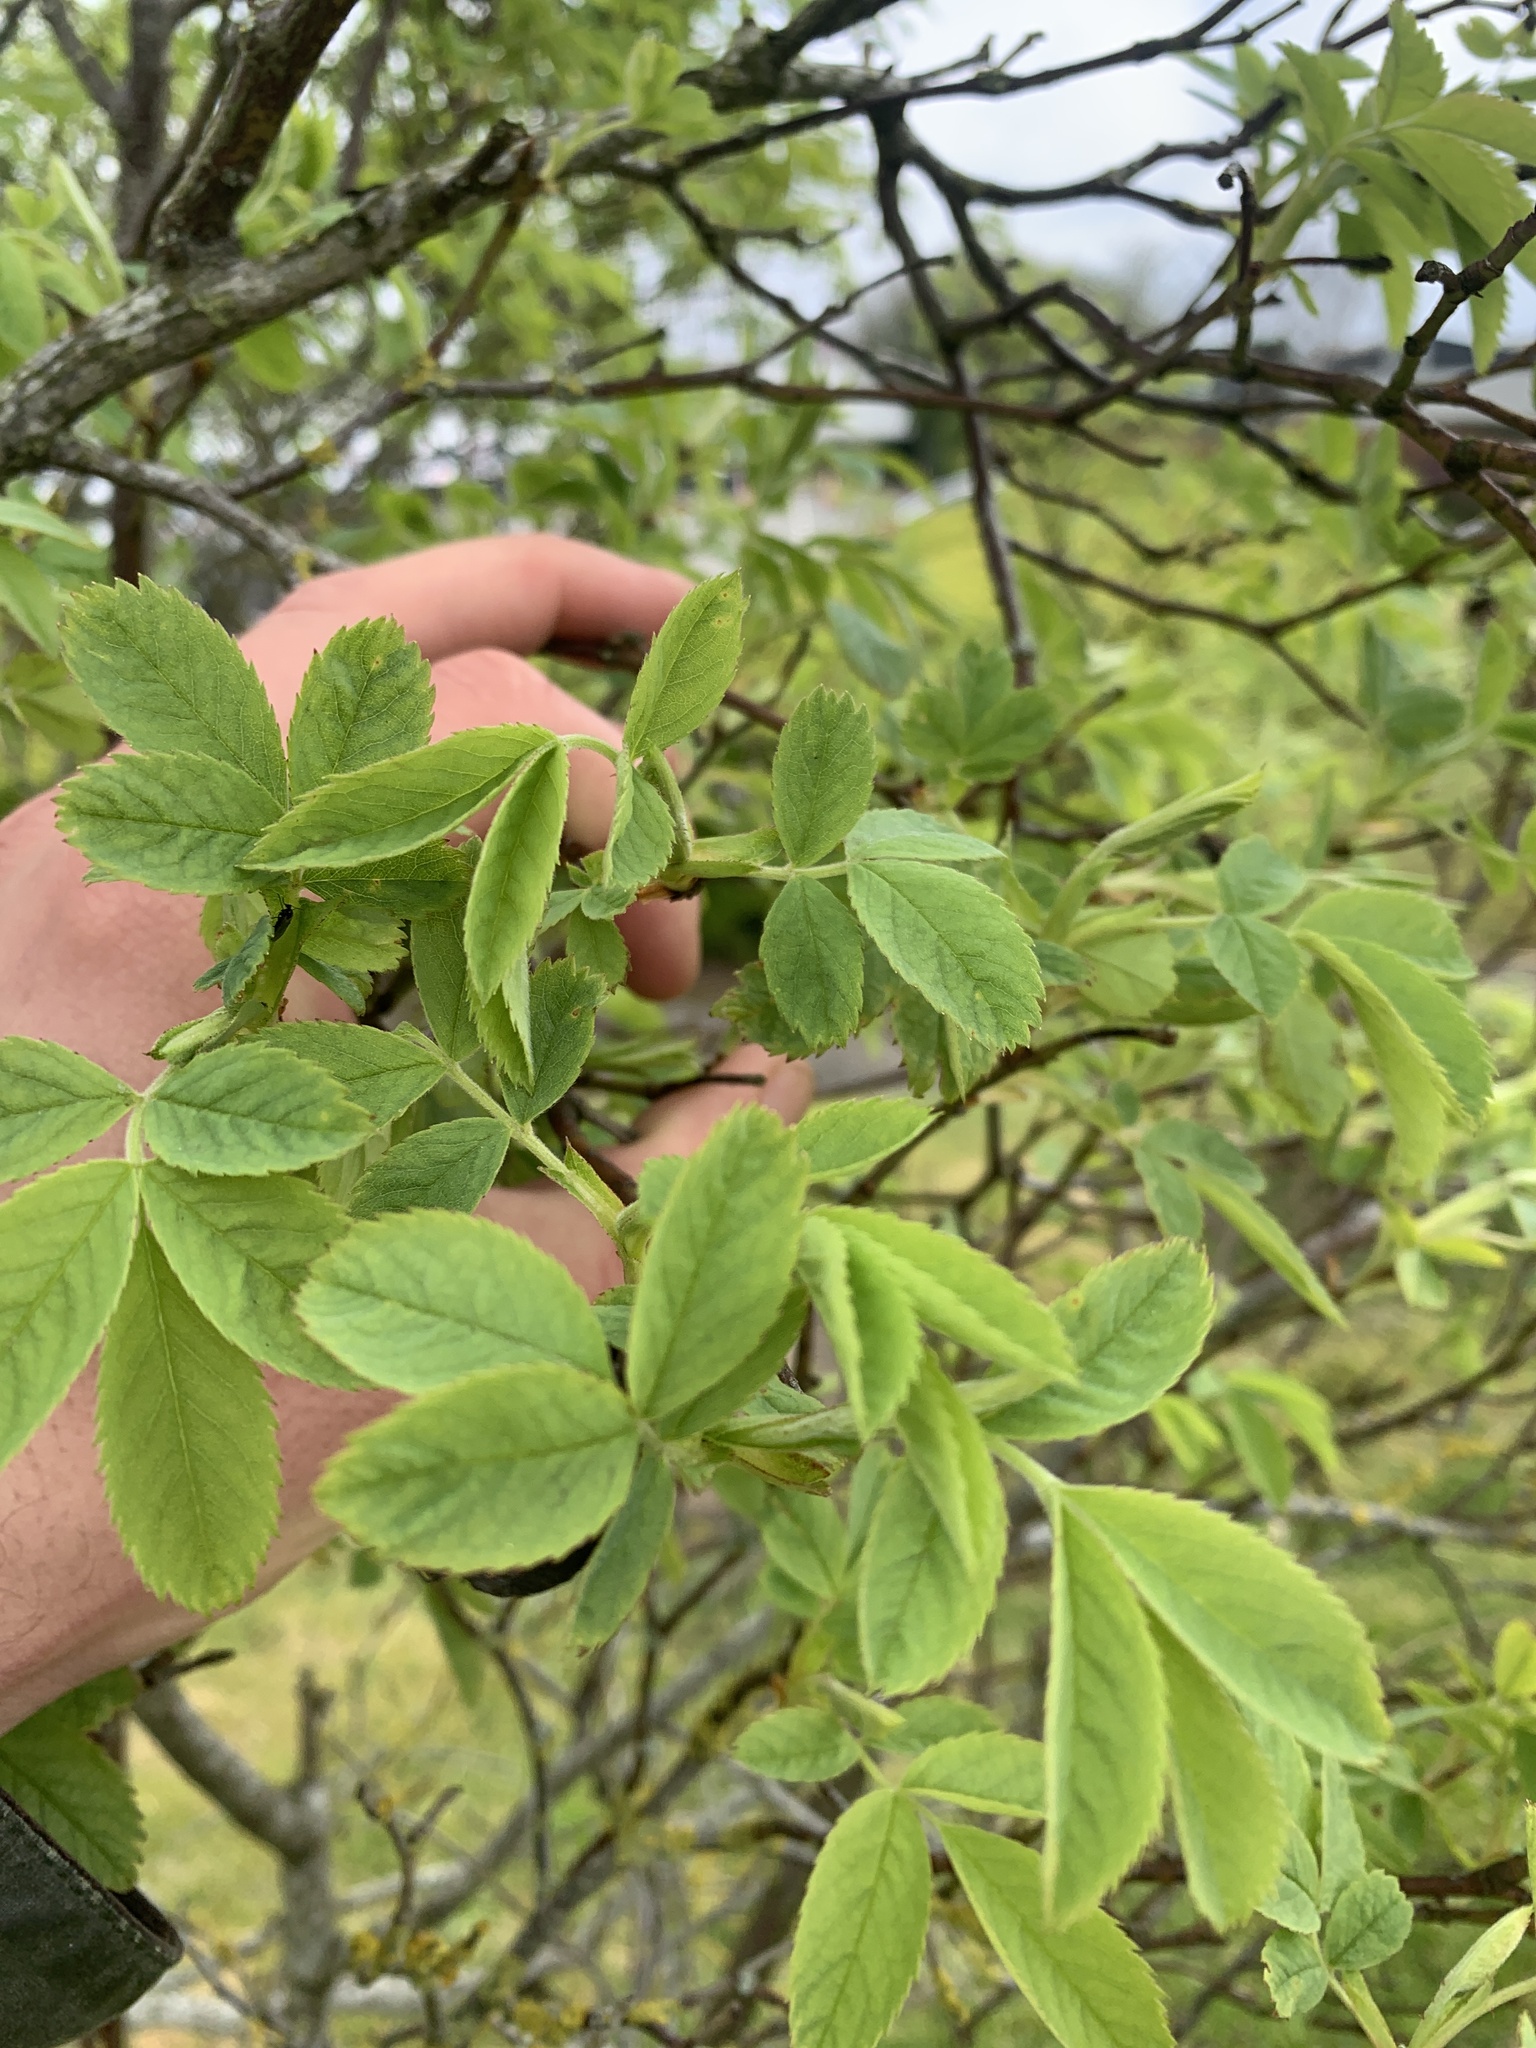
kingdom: Plantae
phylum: Tracheophyta
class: Magnoliopsida
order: Rosales
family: Rosaceae
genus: Rosa
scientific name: Rosa canina
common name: Dog rose
